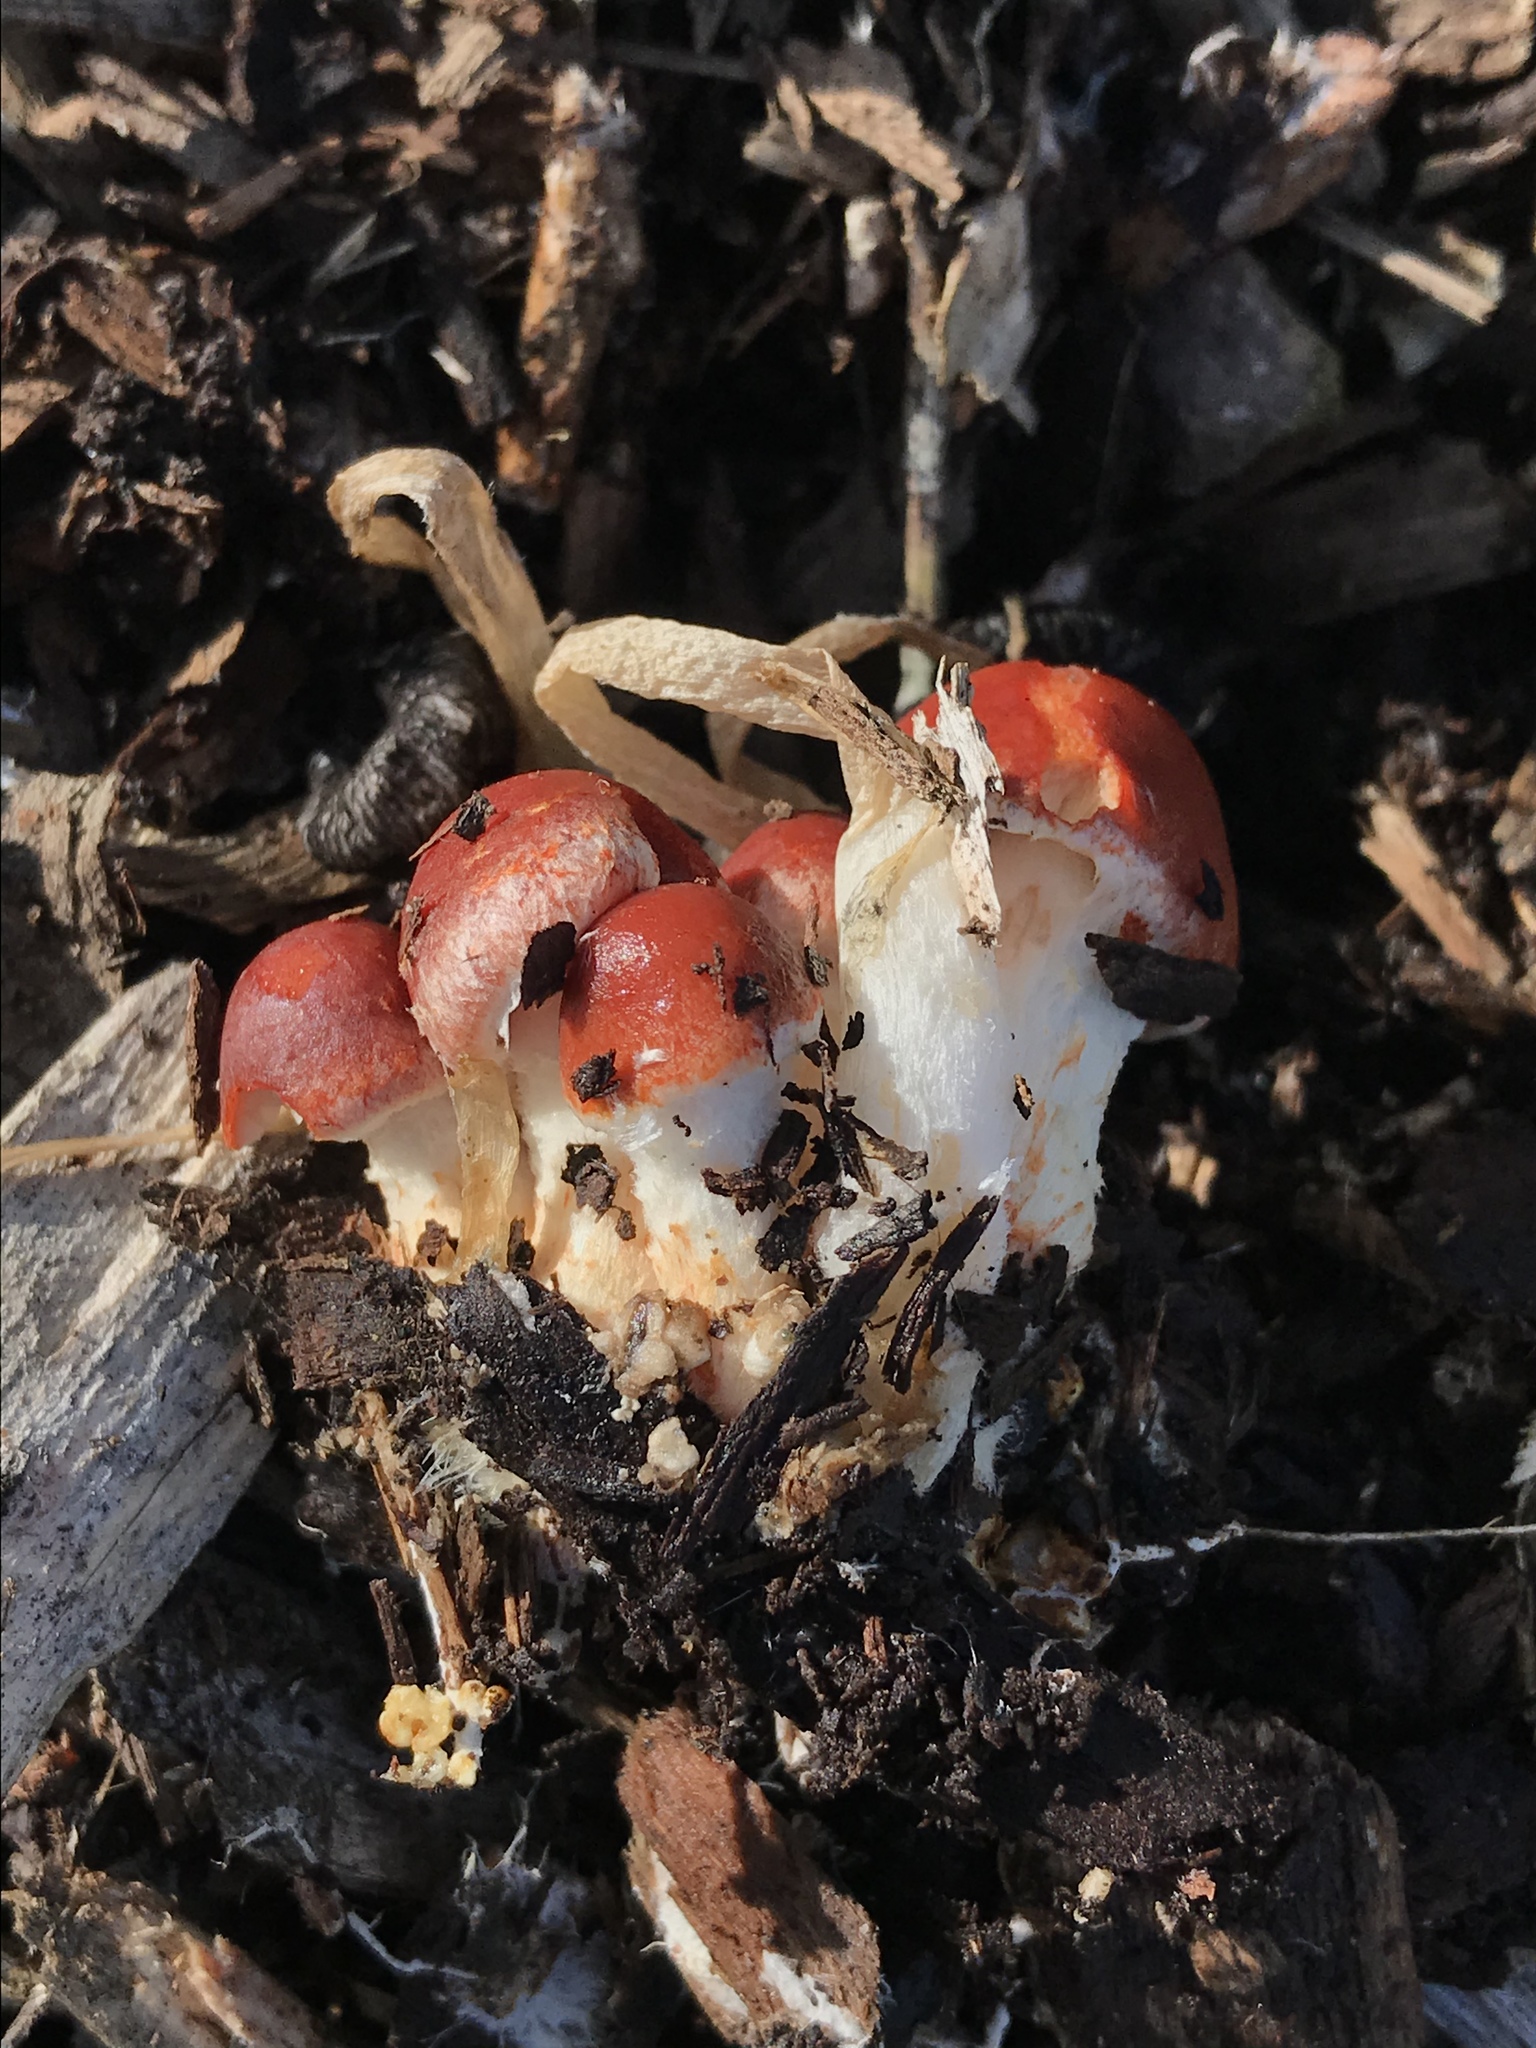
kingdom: Fungi
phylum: Basidiomycota
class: Agaricomycetes
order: Agaricales
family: Strophariaceae
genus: Leratiomyces
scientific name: Leratiomyces ceres
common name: Redlead roundhead
